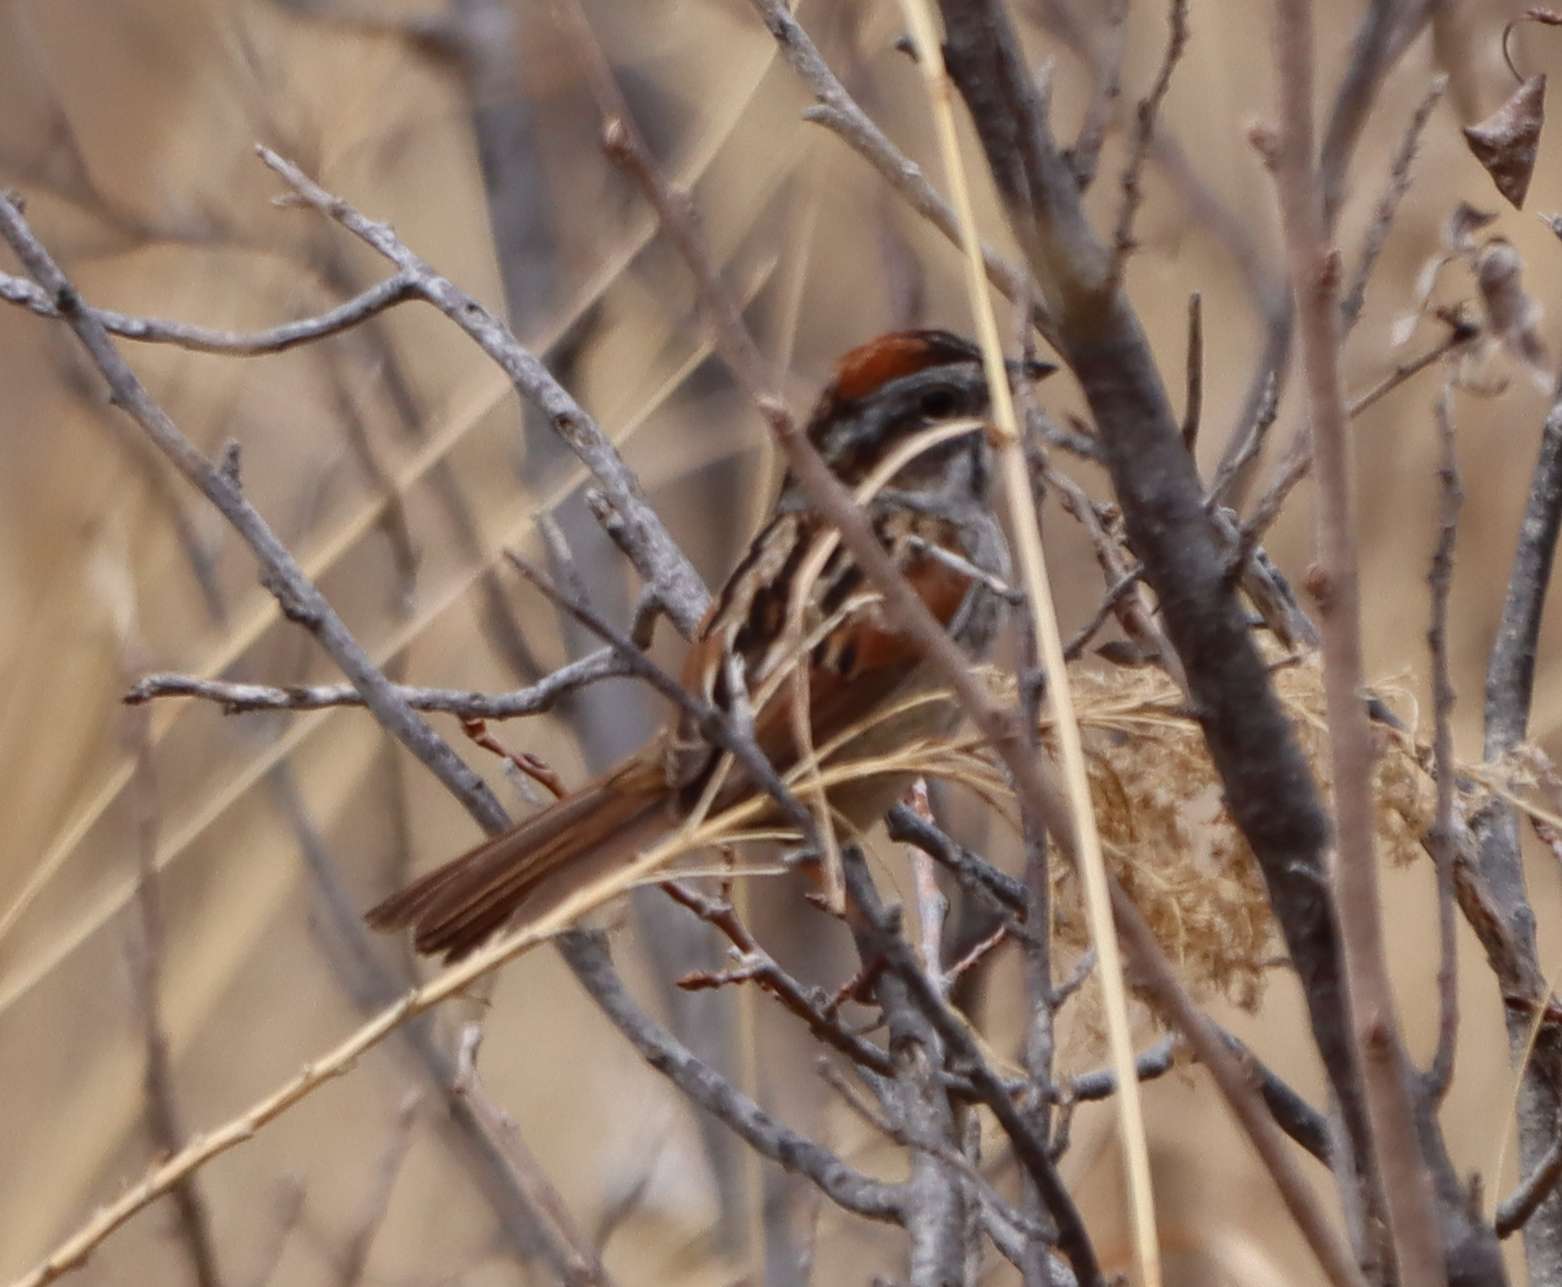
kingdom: Animalia
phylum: Chordata
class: Aves
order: Passeriformes
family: Passerellidae
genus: Melospiza
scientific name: Melospiza georgiana
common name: Swamp sparrow
